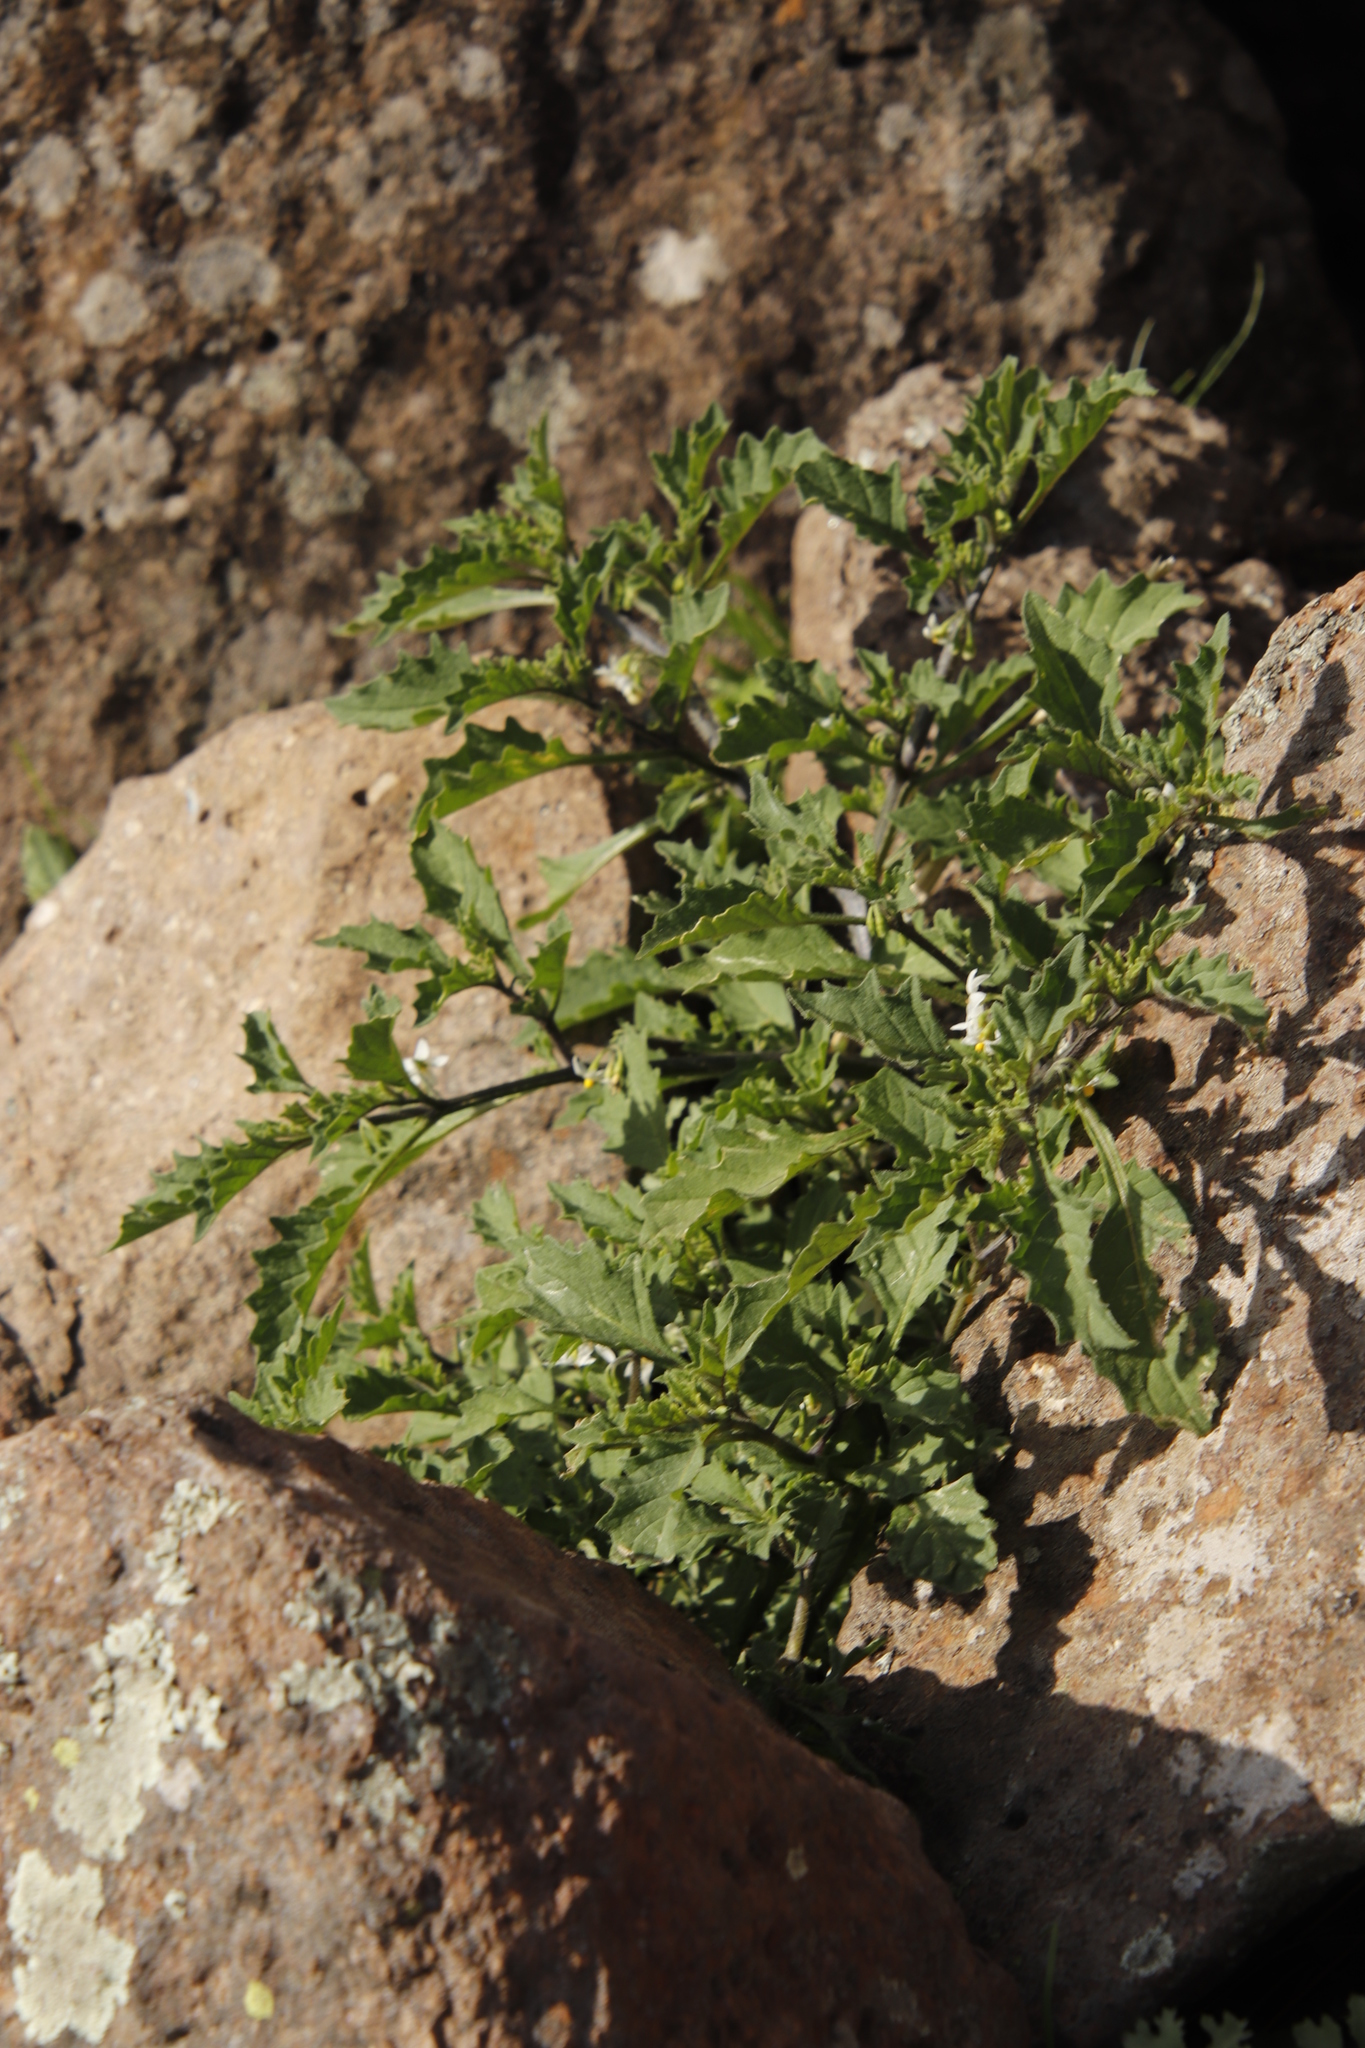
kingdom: Plantae
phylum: Tracheophyta
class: Magnoliopsida
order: Solanales
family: Solanaceae
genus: Solanum
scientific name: Solanum retroflexum
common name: Wonderberry
